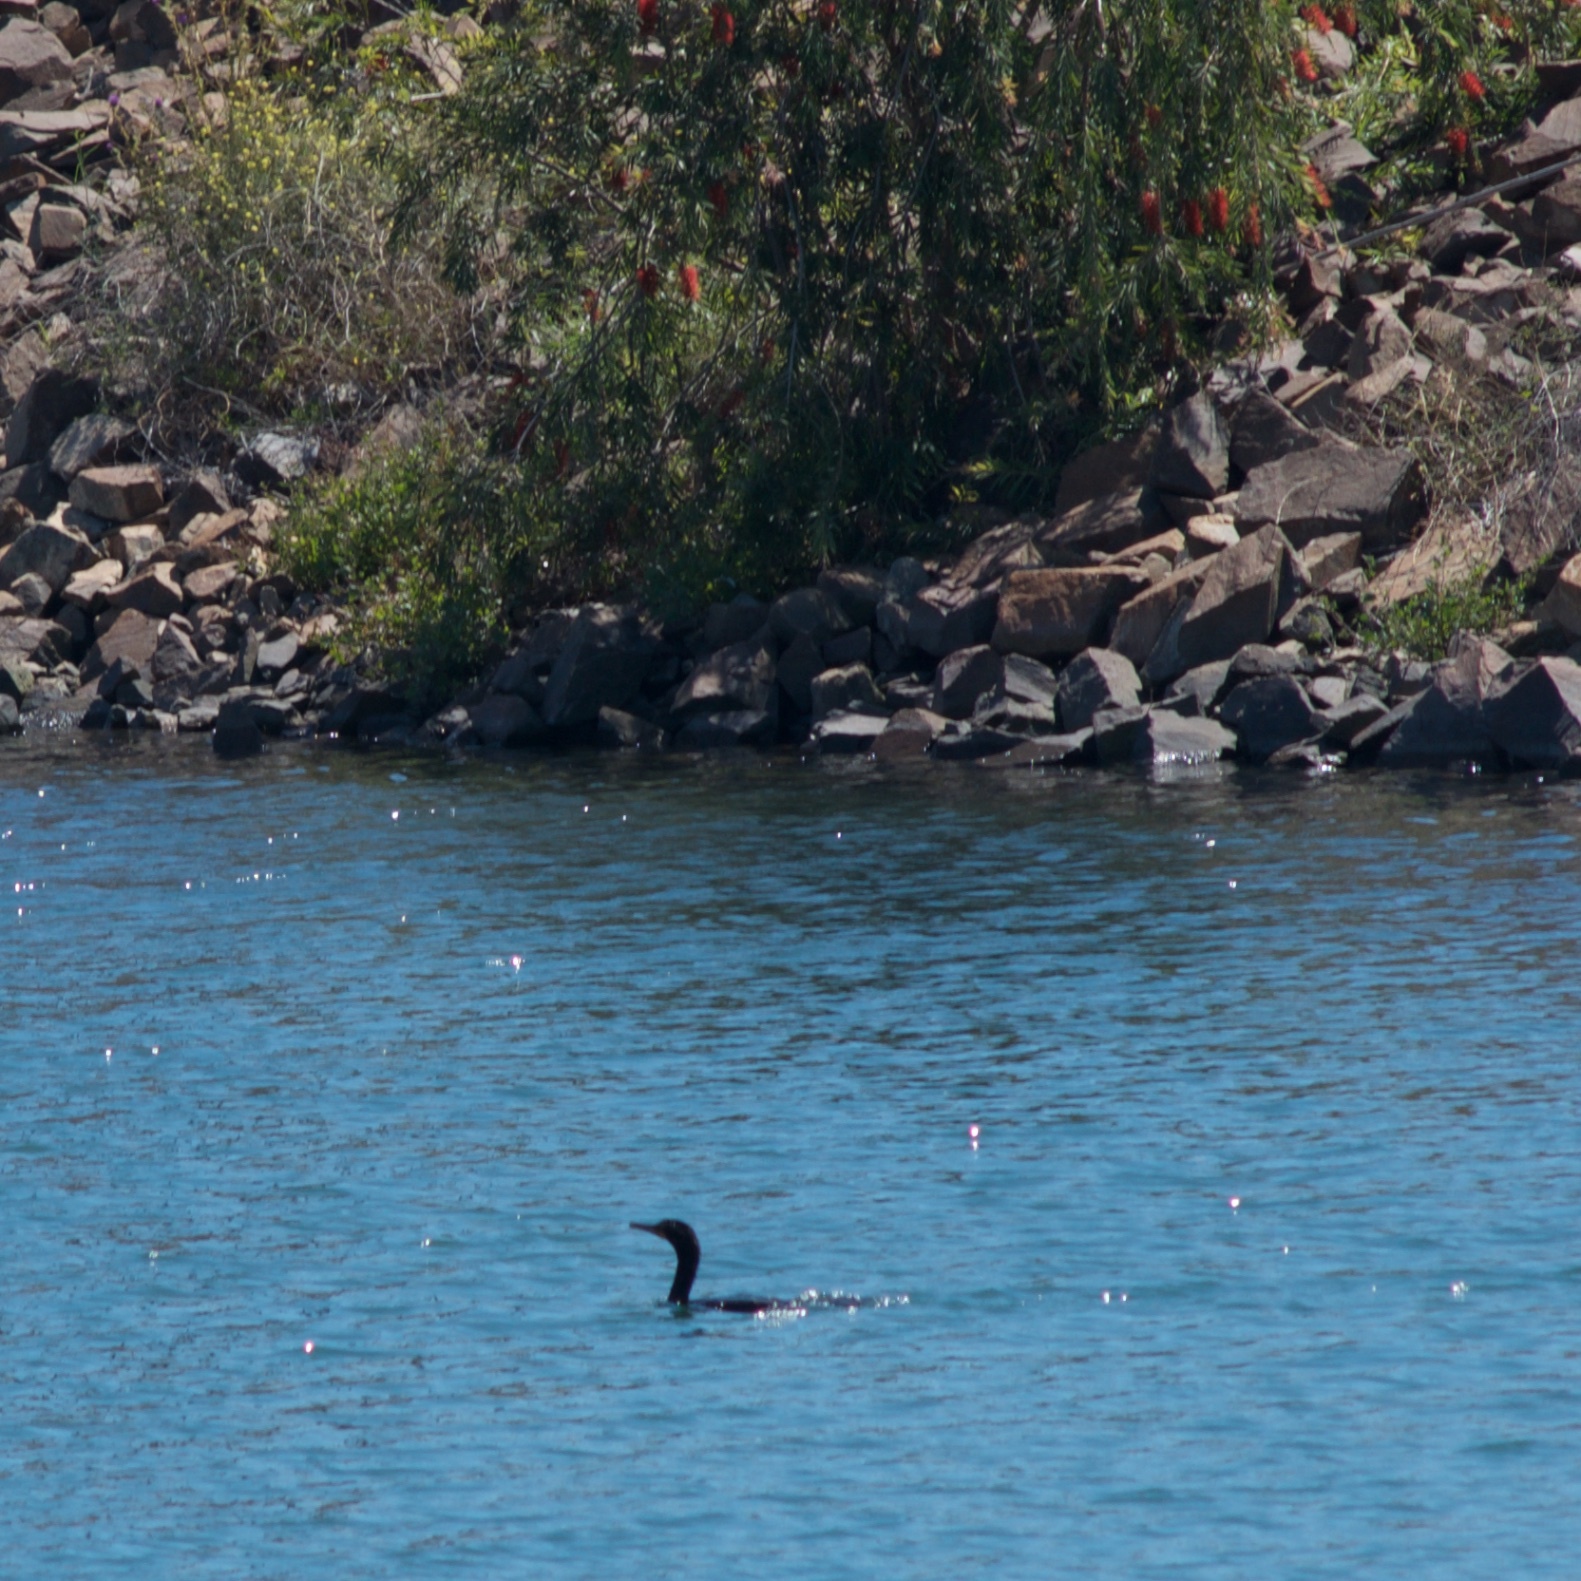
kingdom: Animalia
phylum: Chordata
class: Aves
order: Suliformes
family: Phalacrocoracidae
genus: Phalacrocorax
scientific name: Phalacrocorax auritus
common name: Double-crested cormorant
